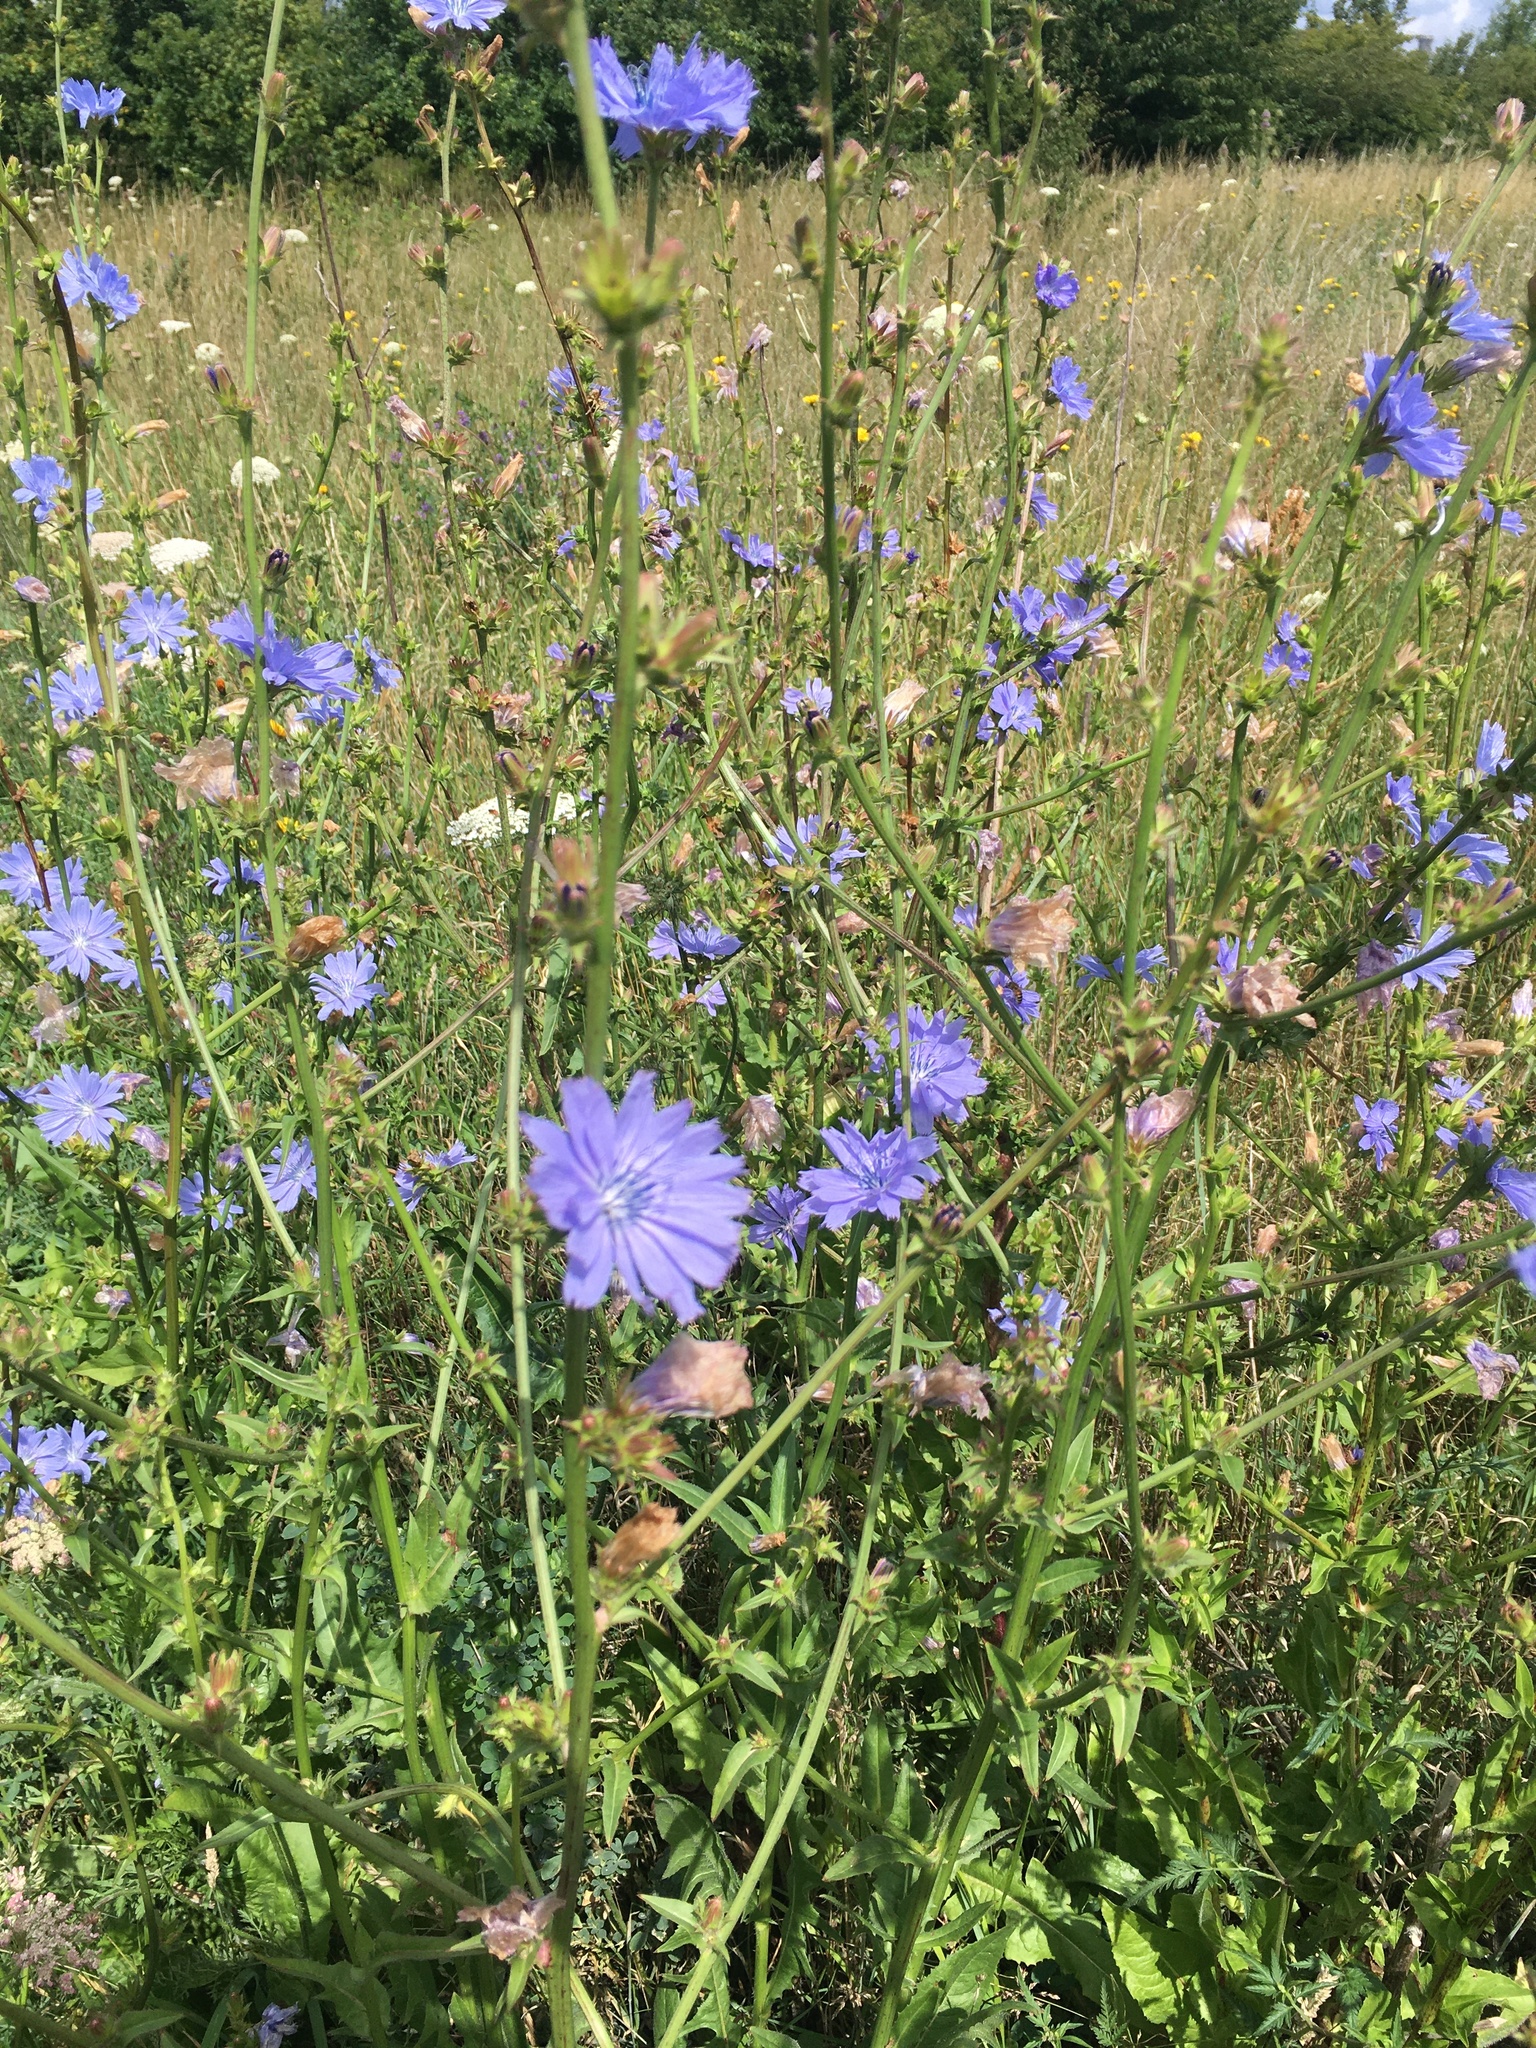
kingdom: Plantae
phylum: Tracheophyta
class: Magnoliopsida
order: Asterales
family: Asteraceae
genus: Cichorium
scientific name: Cichorium intybus
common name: Chicory
